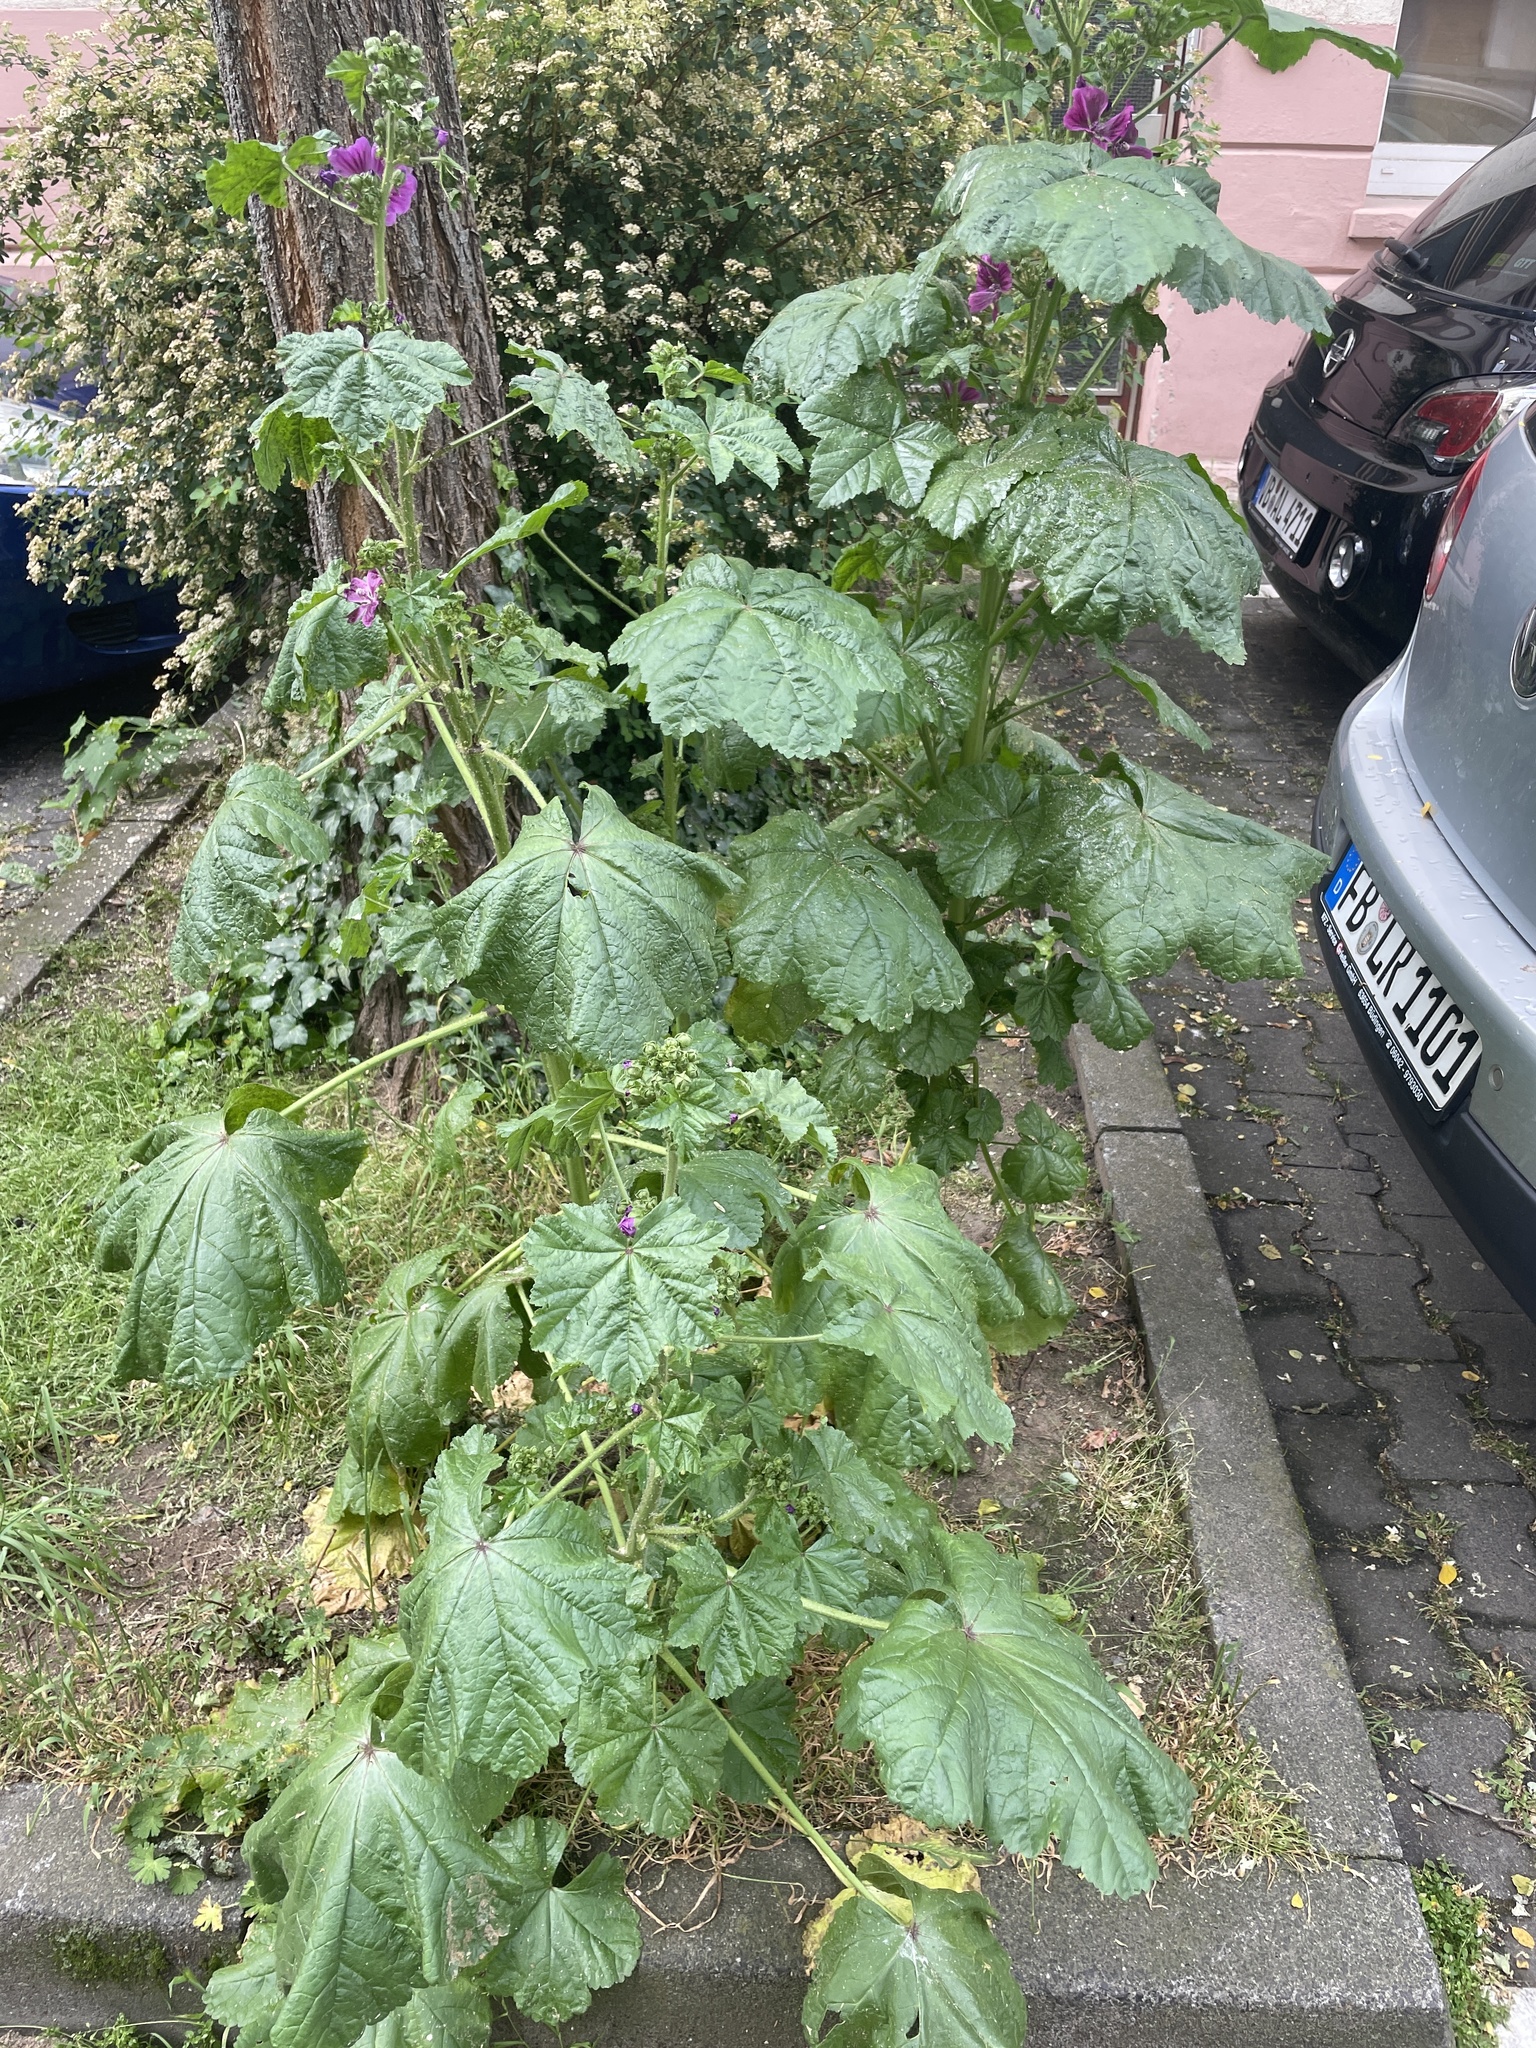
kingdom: Plantae
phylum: Tracheophyta
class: Magnoliopsida
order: Malvales
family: Malvaceae
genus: Malva
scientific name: Malva sylvestris
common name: Common mallow
